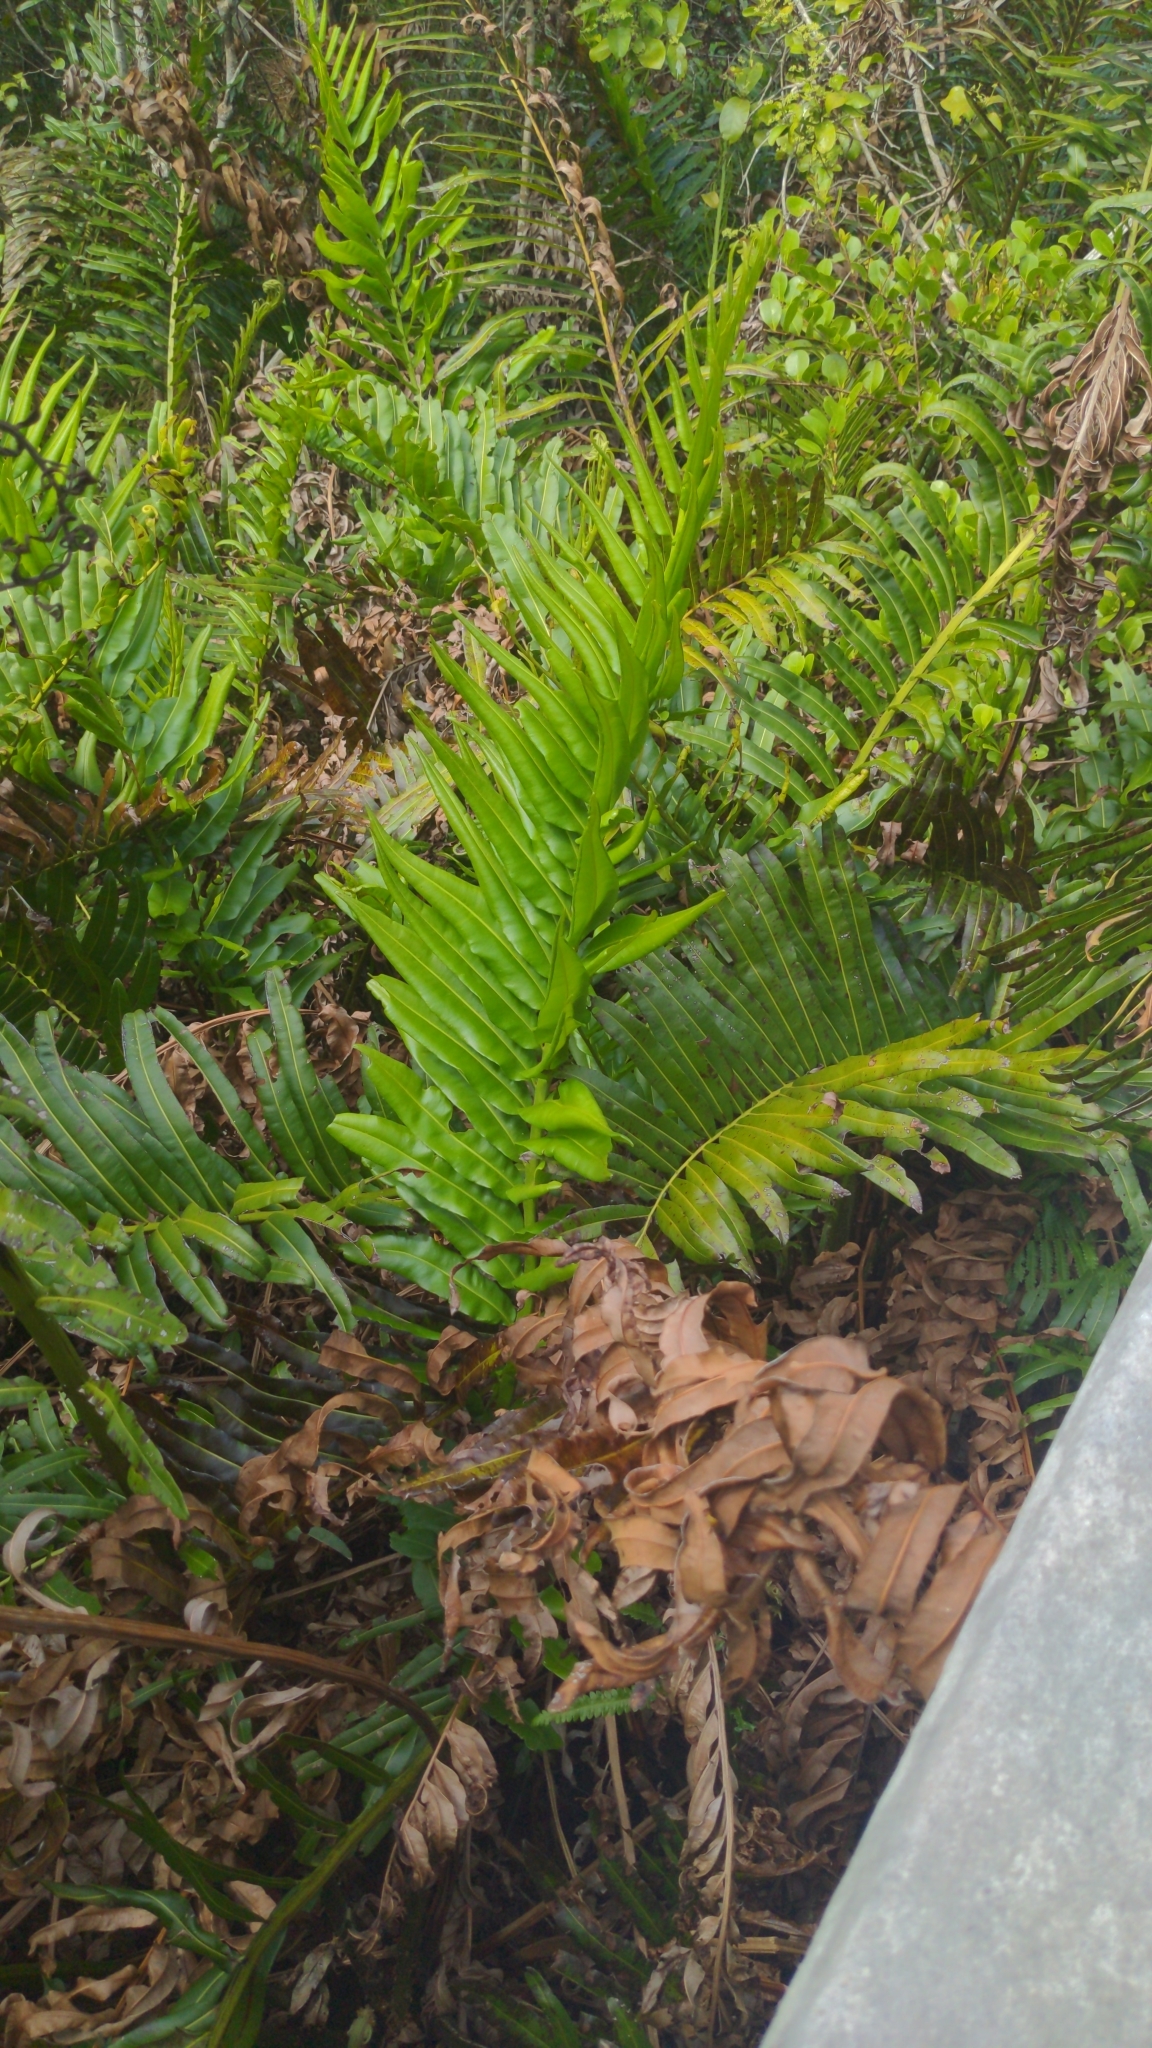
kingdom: Plantae
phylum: Tracheophyta
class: Polypodiopsida
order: Polypodiales
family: Pteridaceae
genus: Acrostichum
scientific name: Acrostichum danaeifolium
